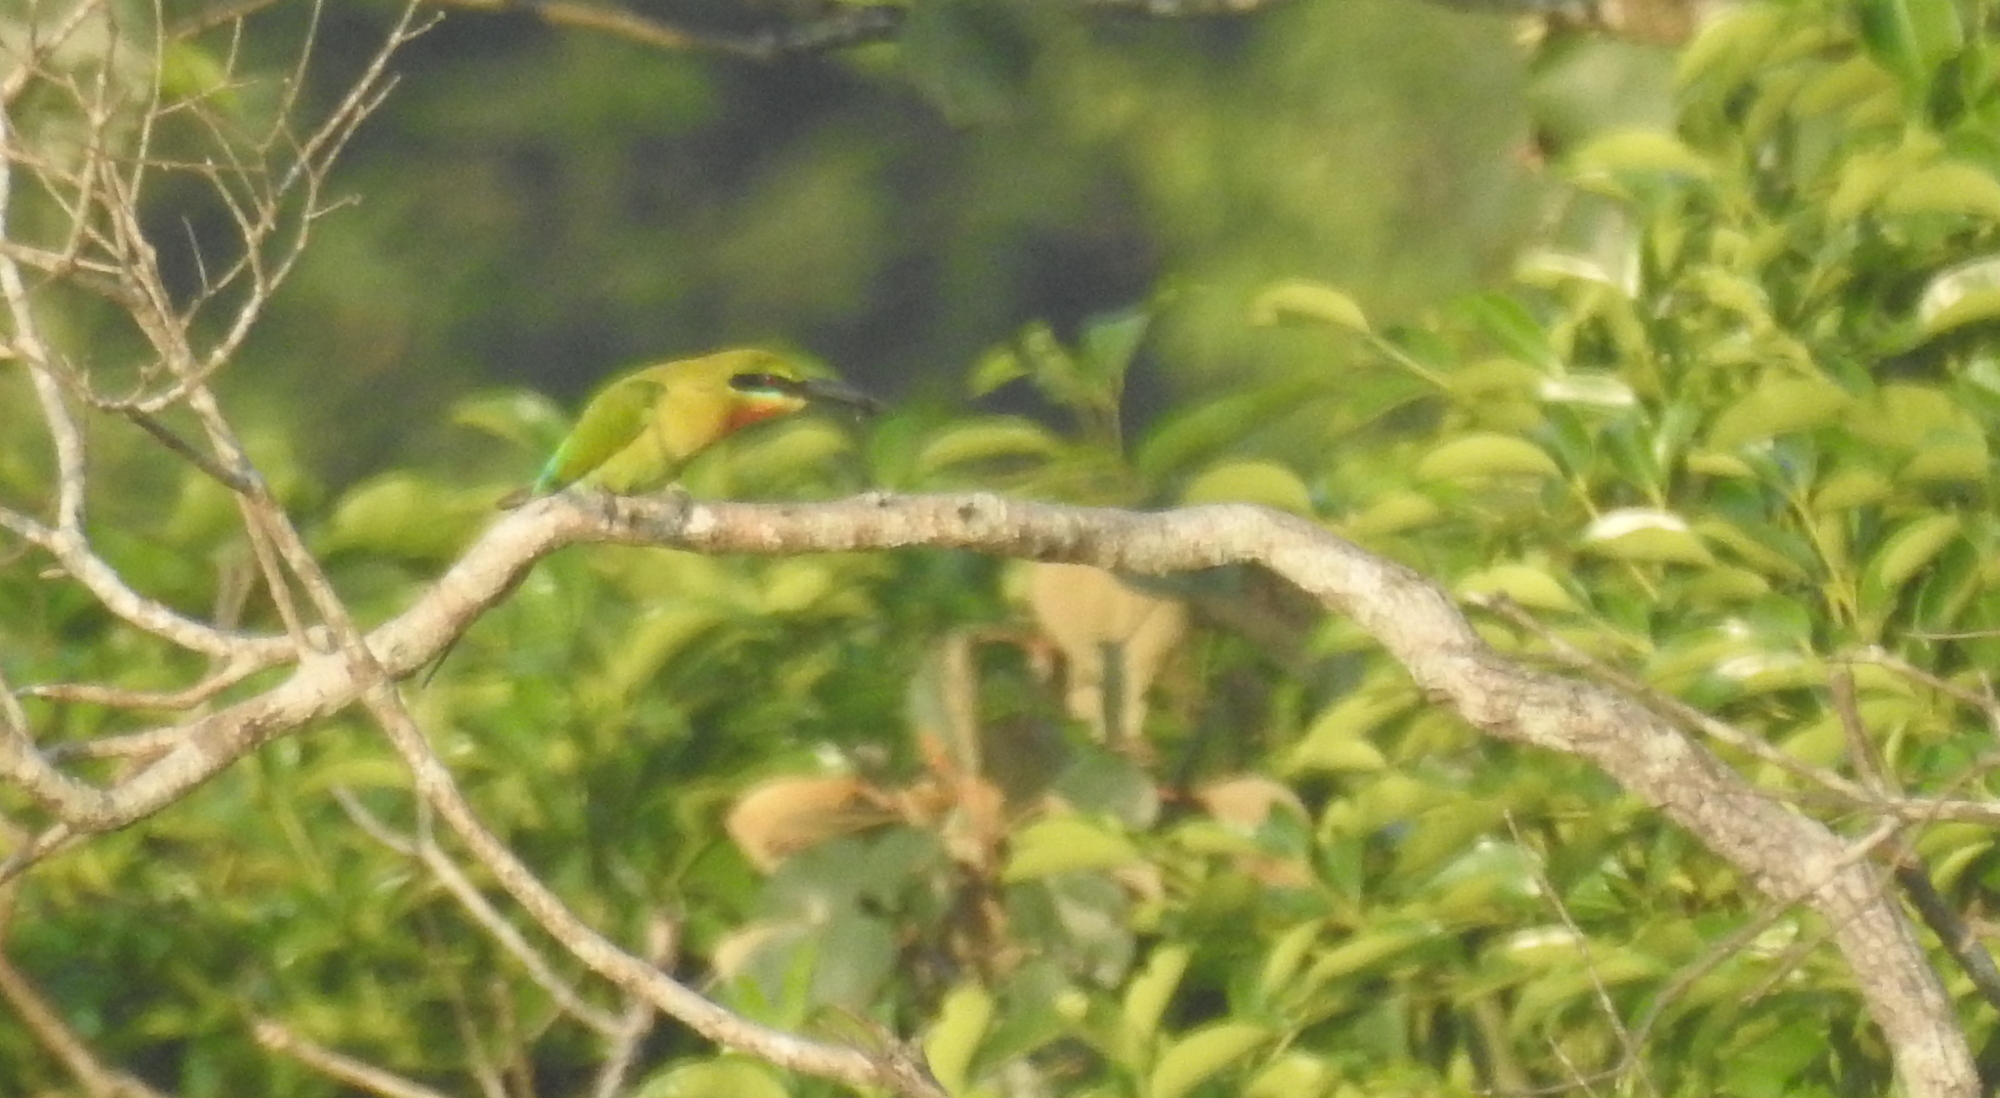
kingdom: Animalia
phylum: Chordata
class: Aves
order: Coraciiformes
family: Meropidae
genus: Merops
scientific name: Merops philippinus
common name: Blue-tailed bee-eater
